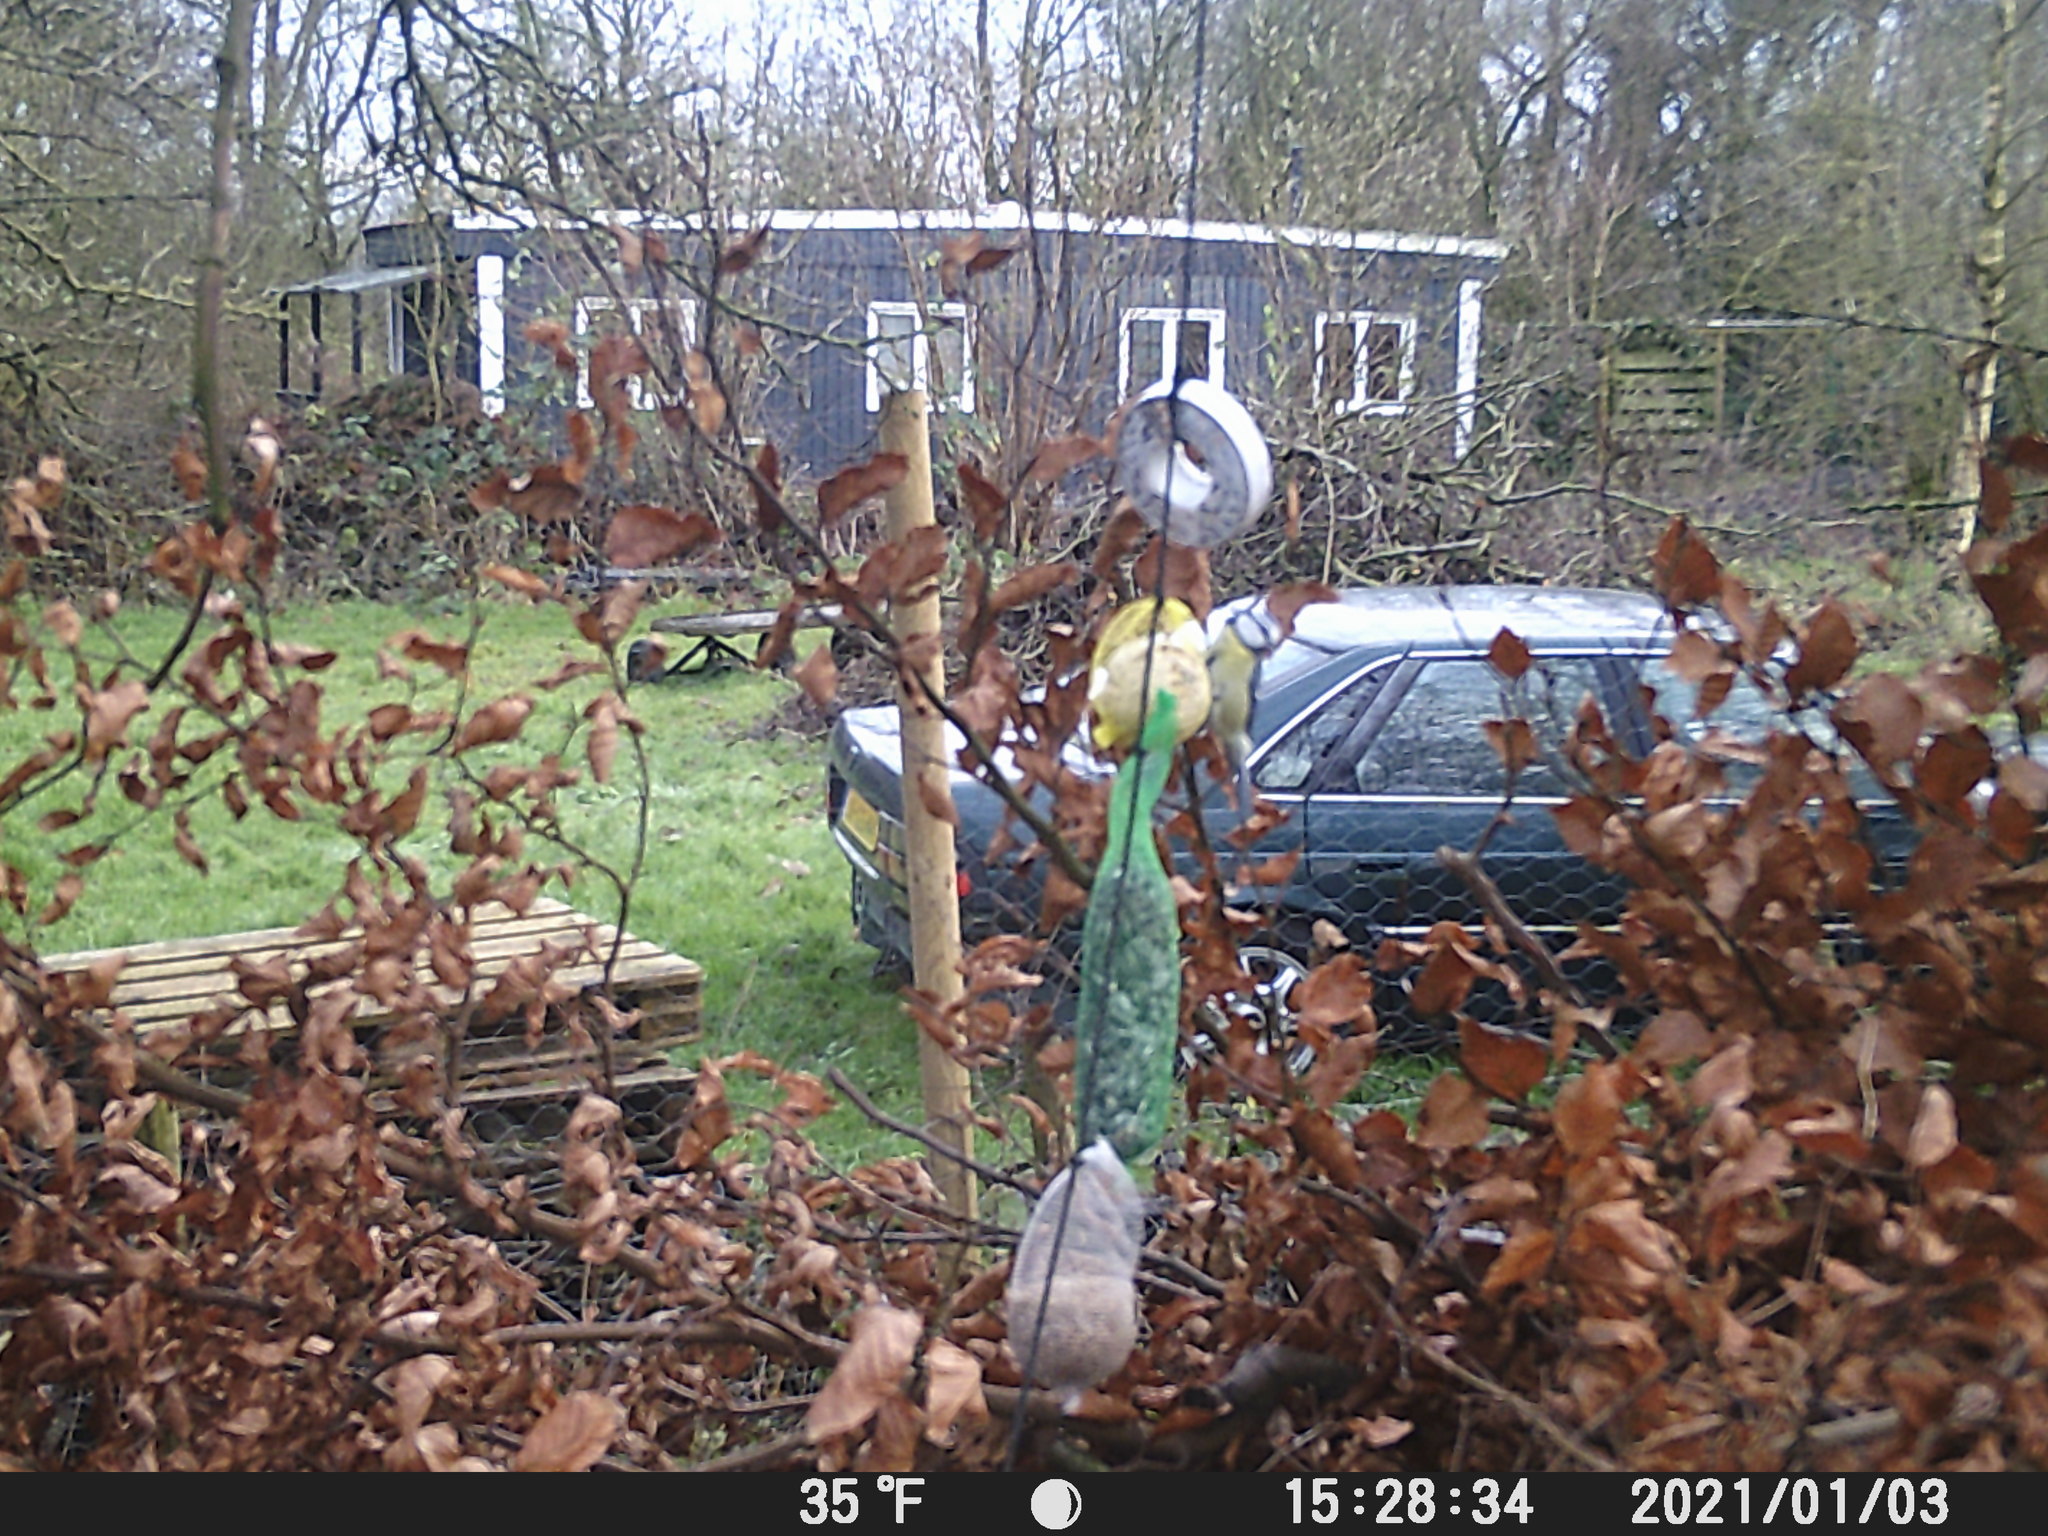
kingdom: Animalia
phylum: Chordata
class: Aves
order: Passeriformes
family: Paridae
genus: Cyanistes
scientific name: Cyanistes caeruleus
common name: Eurasian blue tit
